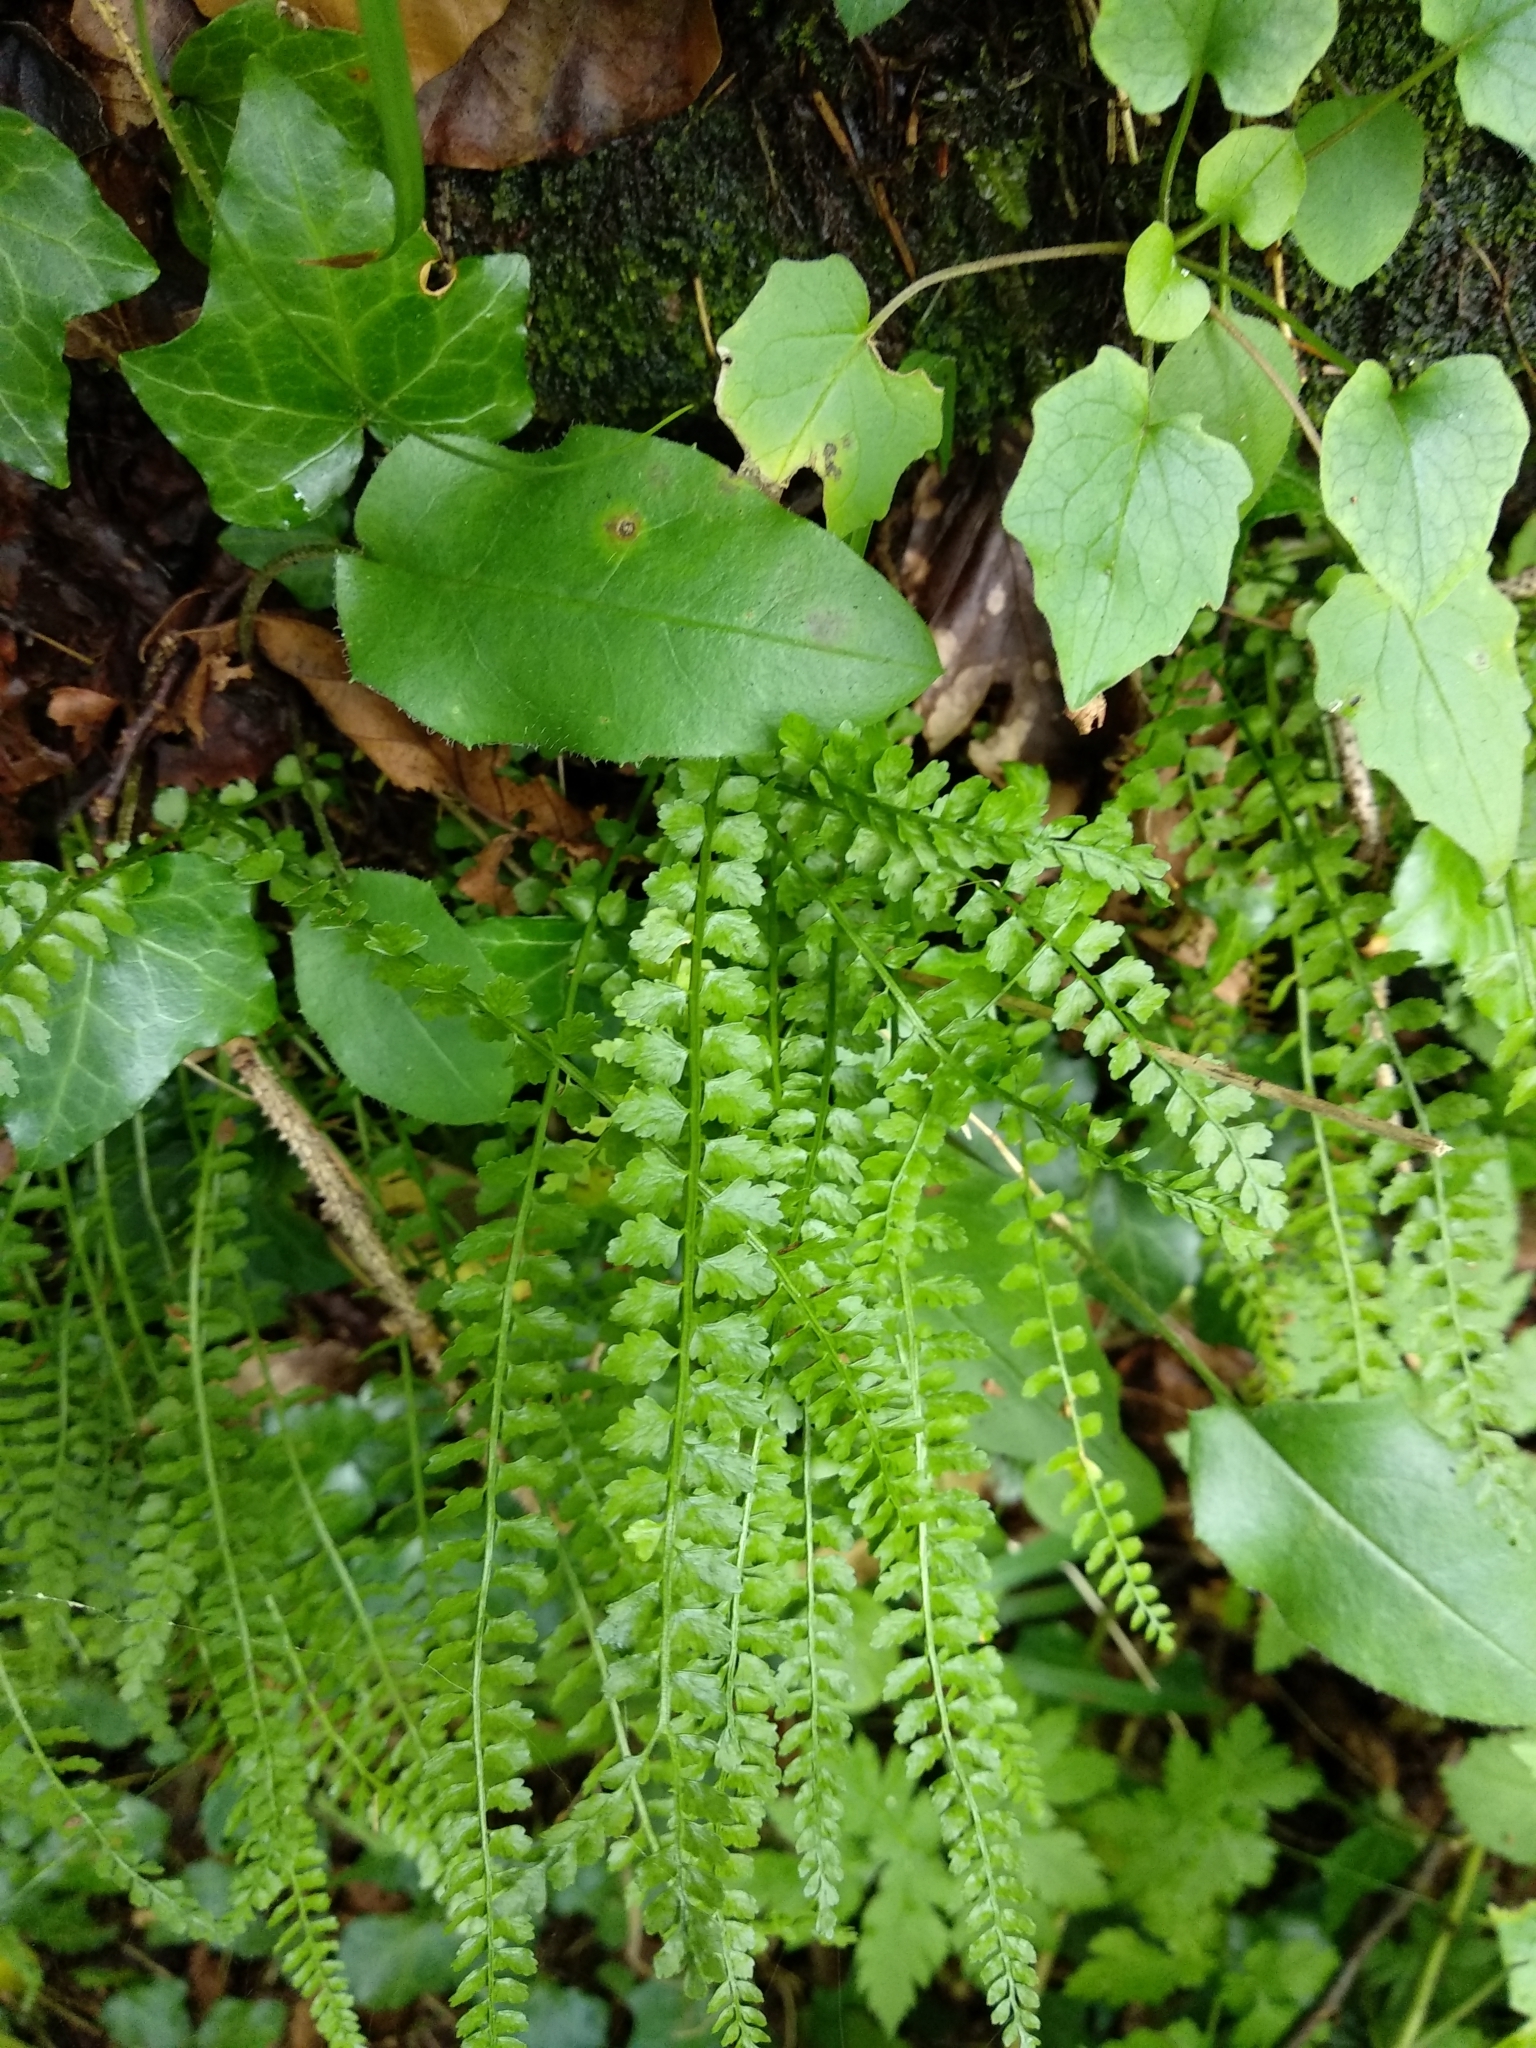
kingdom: Plantae
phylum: Tracheophyta
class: Polypodiopsida
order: Polypodiales
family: Aspleniaceae
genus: Asplenium
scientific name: Asplenium viride
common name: Green spleenwort
